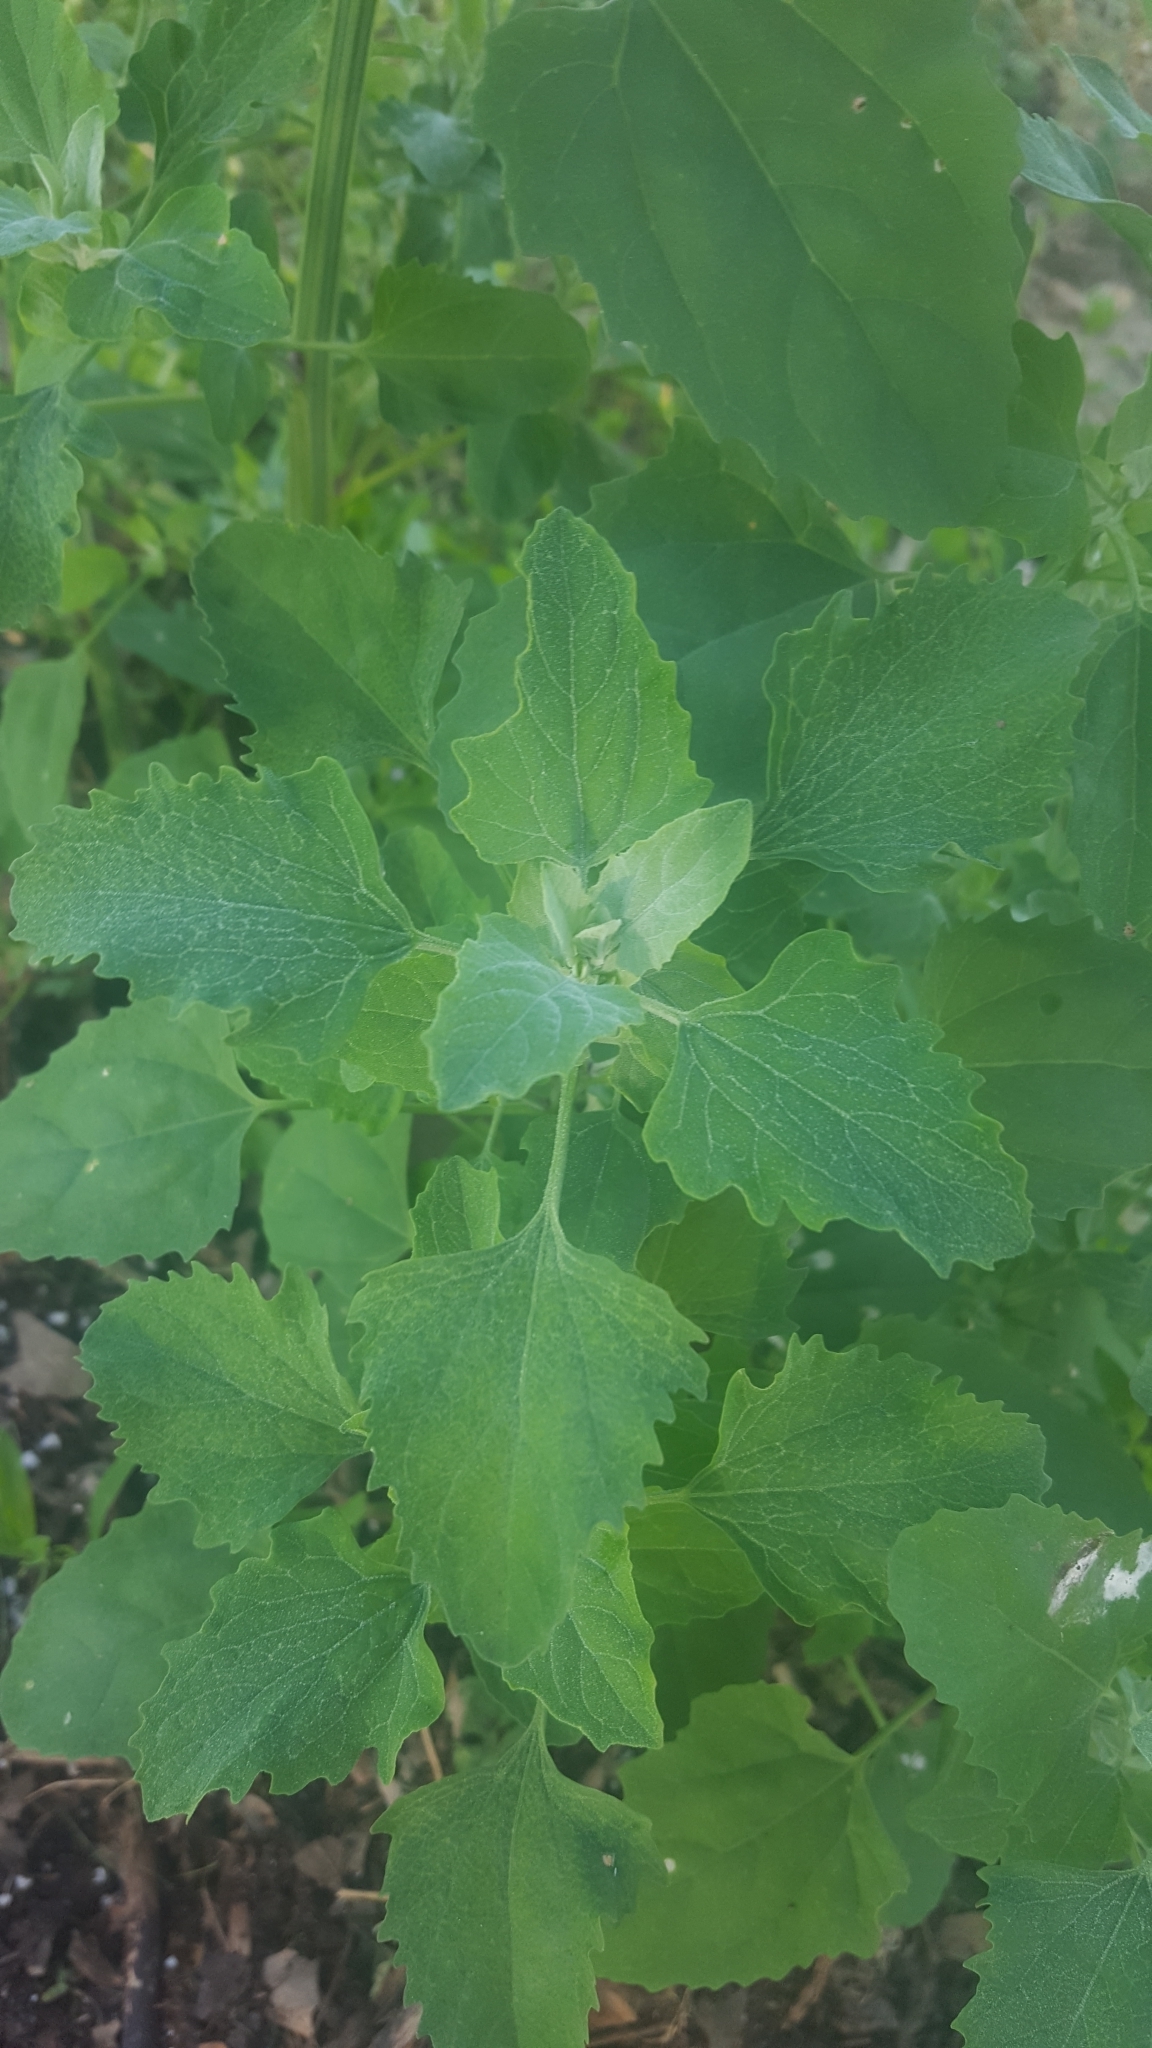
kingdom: Plantae
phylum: Tracheophyta
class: Magnoliopsida
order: Caryophyllales
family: Amaranthaceae
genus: Chenopodium
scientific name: Chenopodium album
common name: Fat-hen
